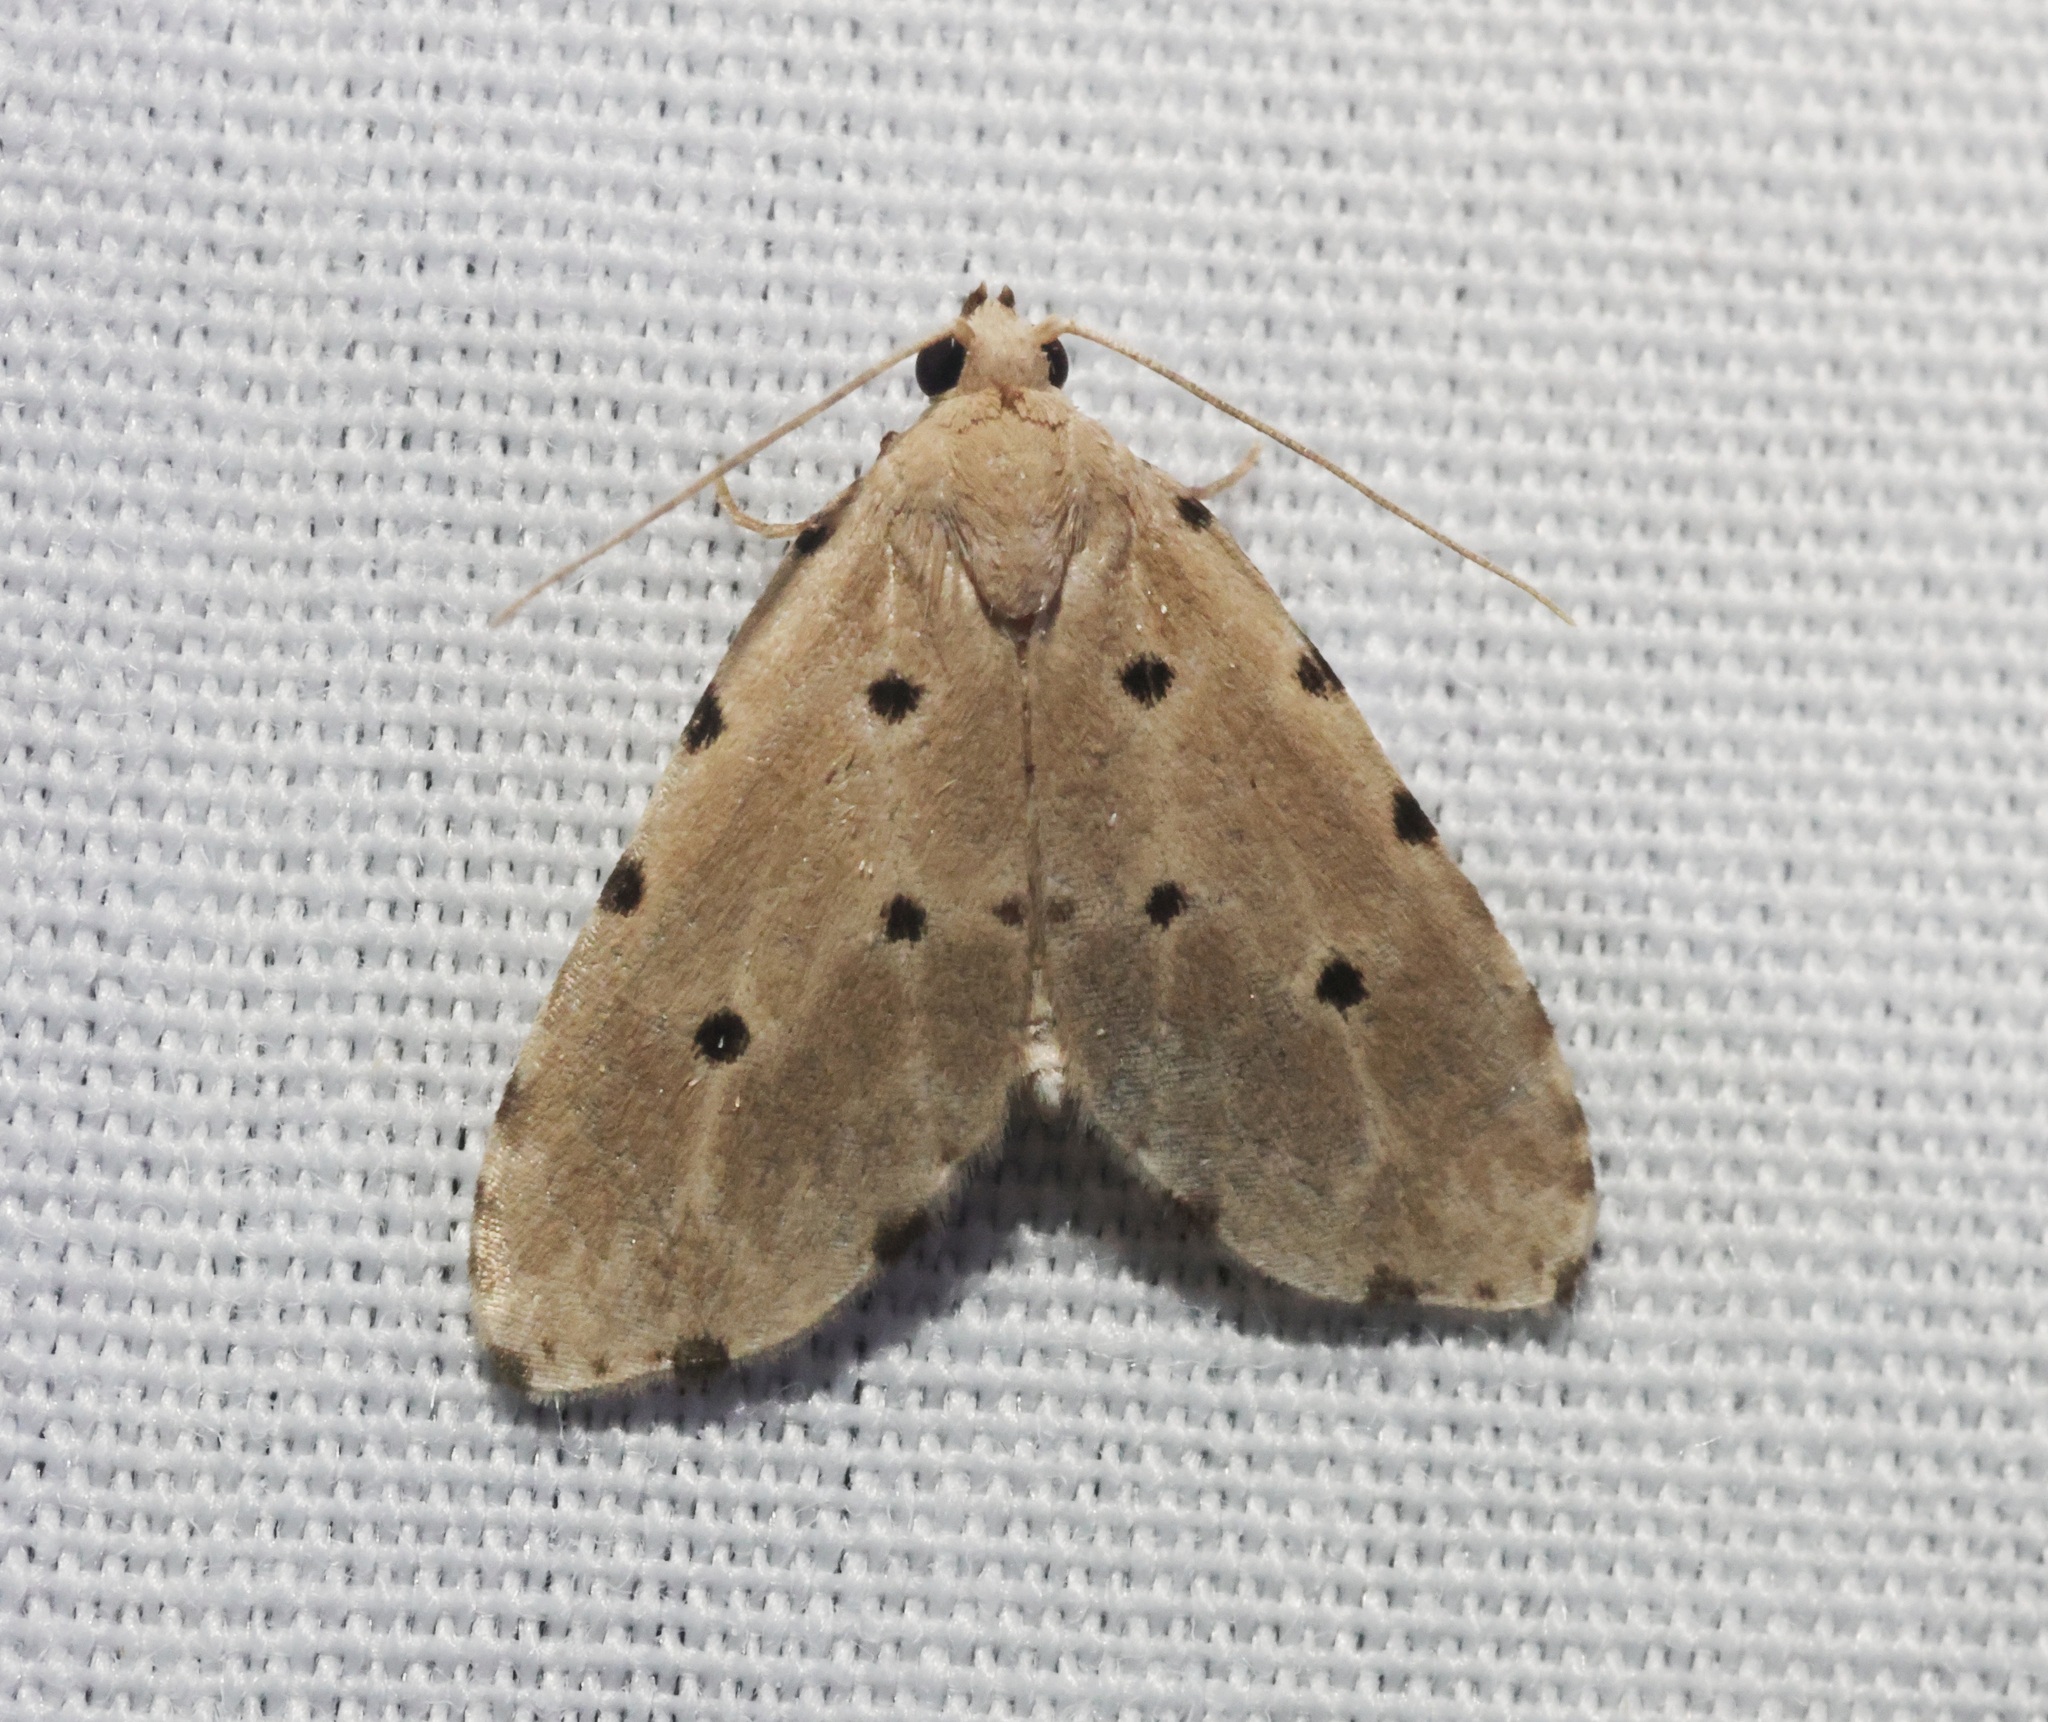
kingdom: Animalia
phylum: Arthropoda
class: Insecta
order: Lepidoptera
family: Noctuidae
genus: Metaemene
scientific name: Metaemene atrigutta
